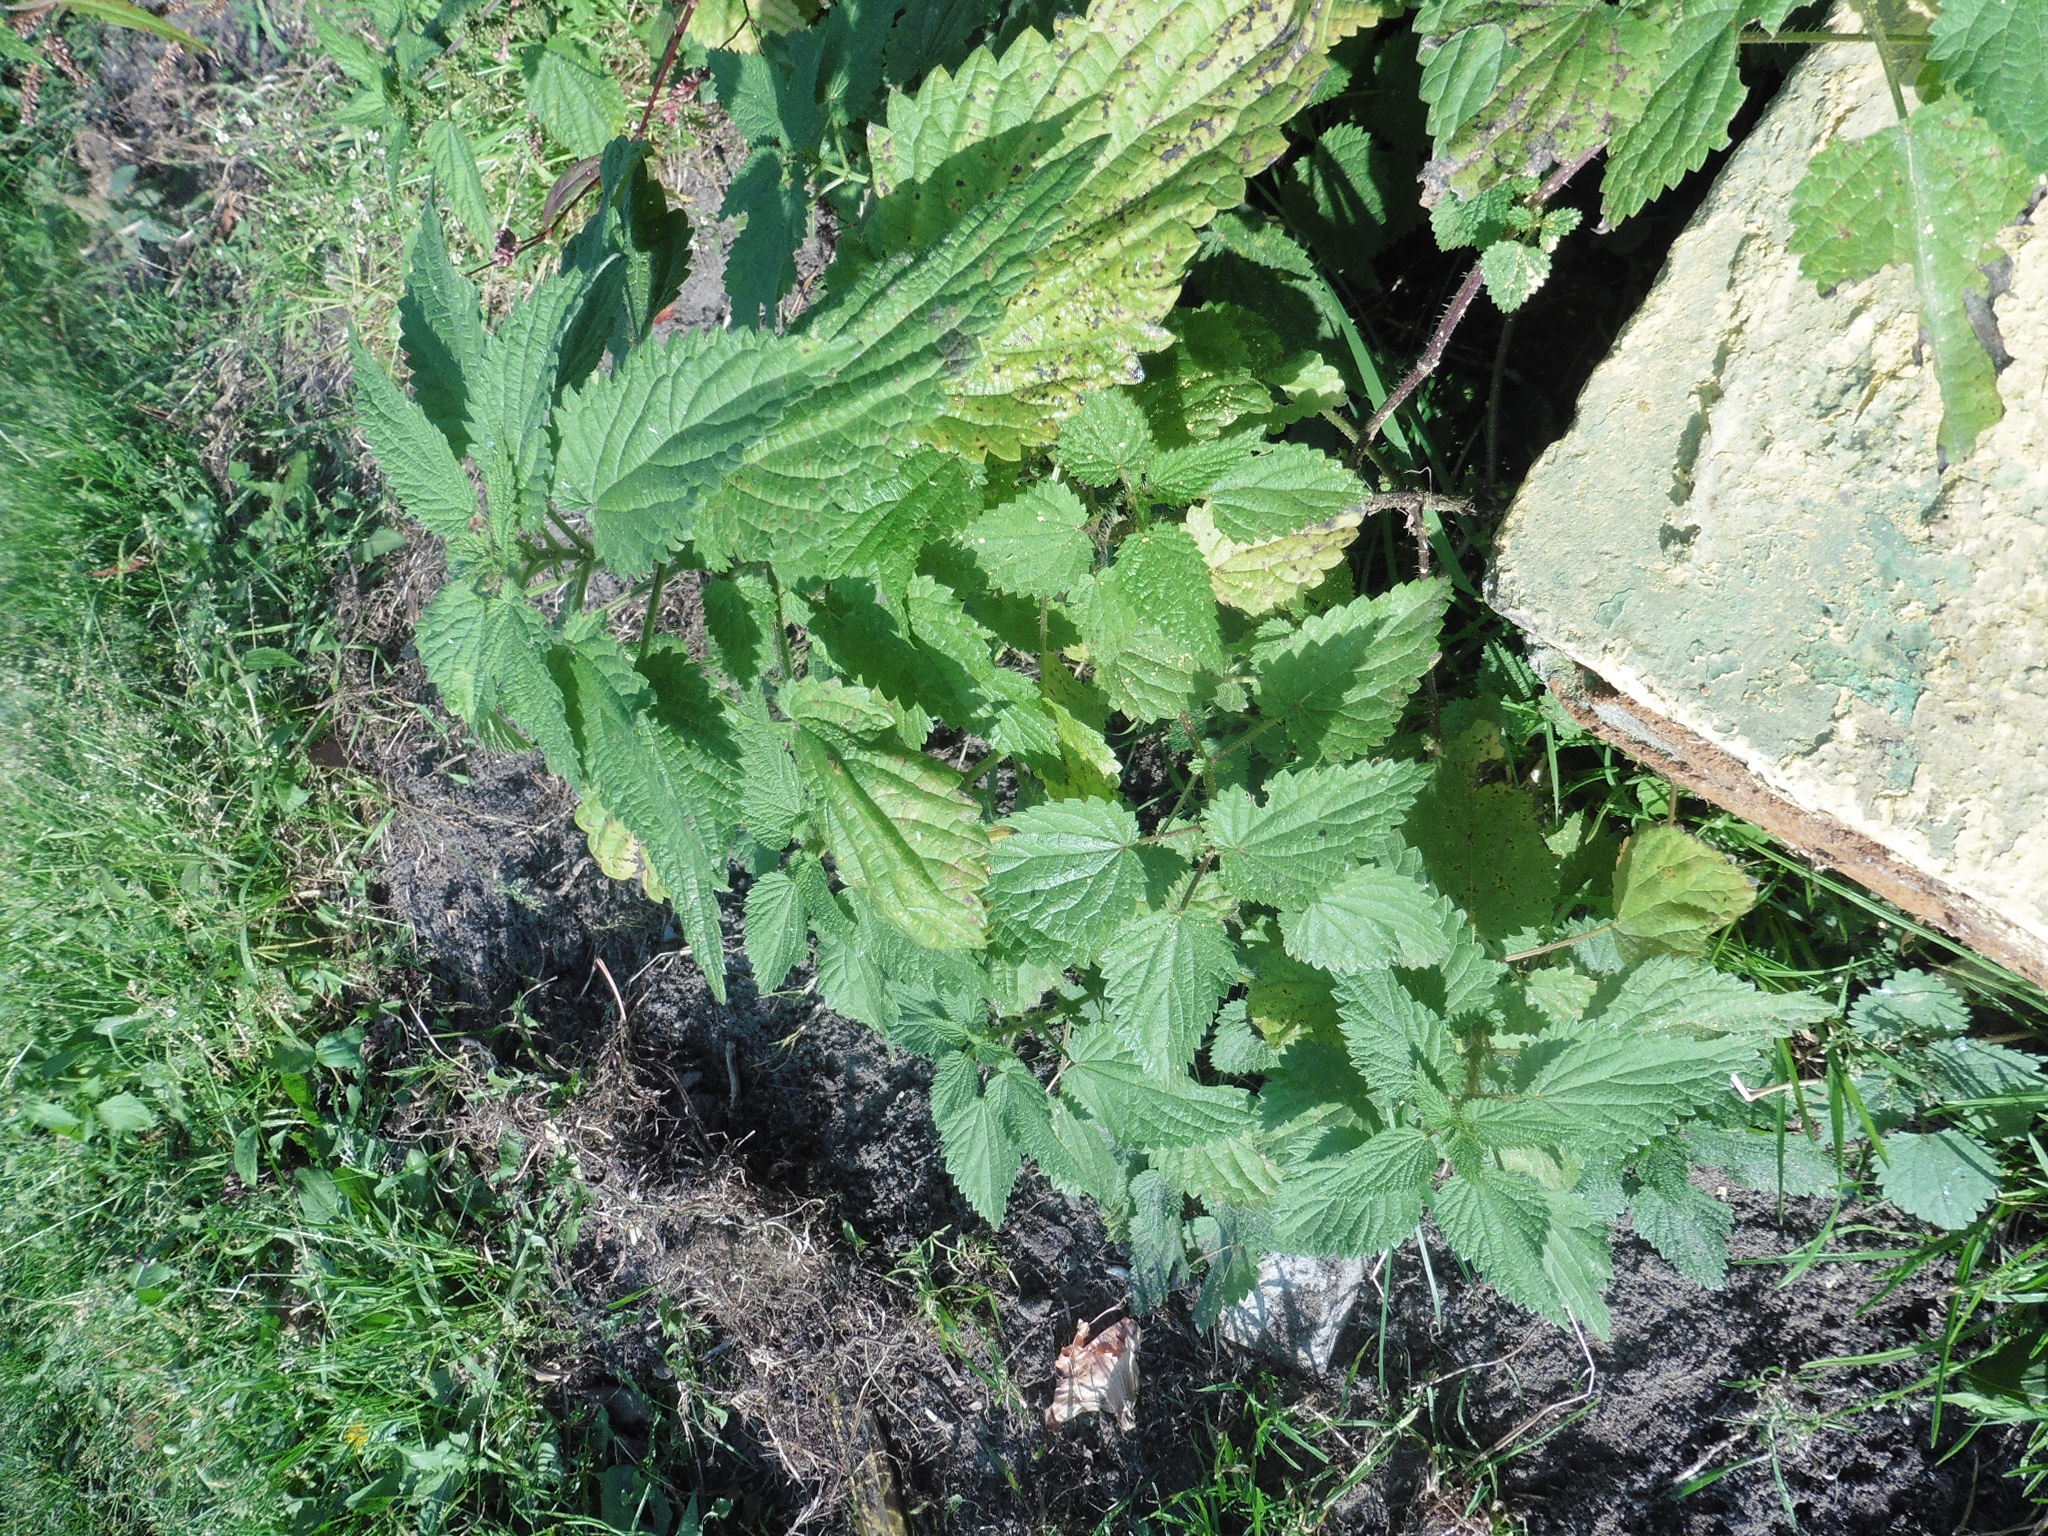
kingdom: Plantae
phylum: Tracheophyta
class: Magnoliopsida
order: Rosales
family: Urticaceae
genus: Urtica
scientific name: Urtica dioica
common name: Common nettle
